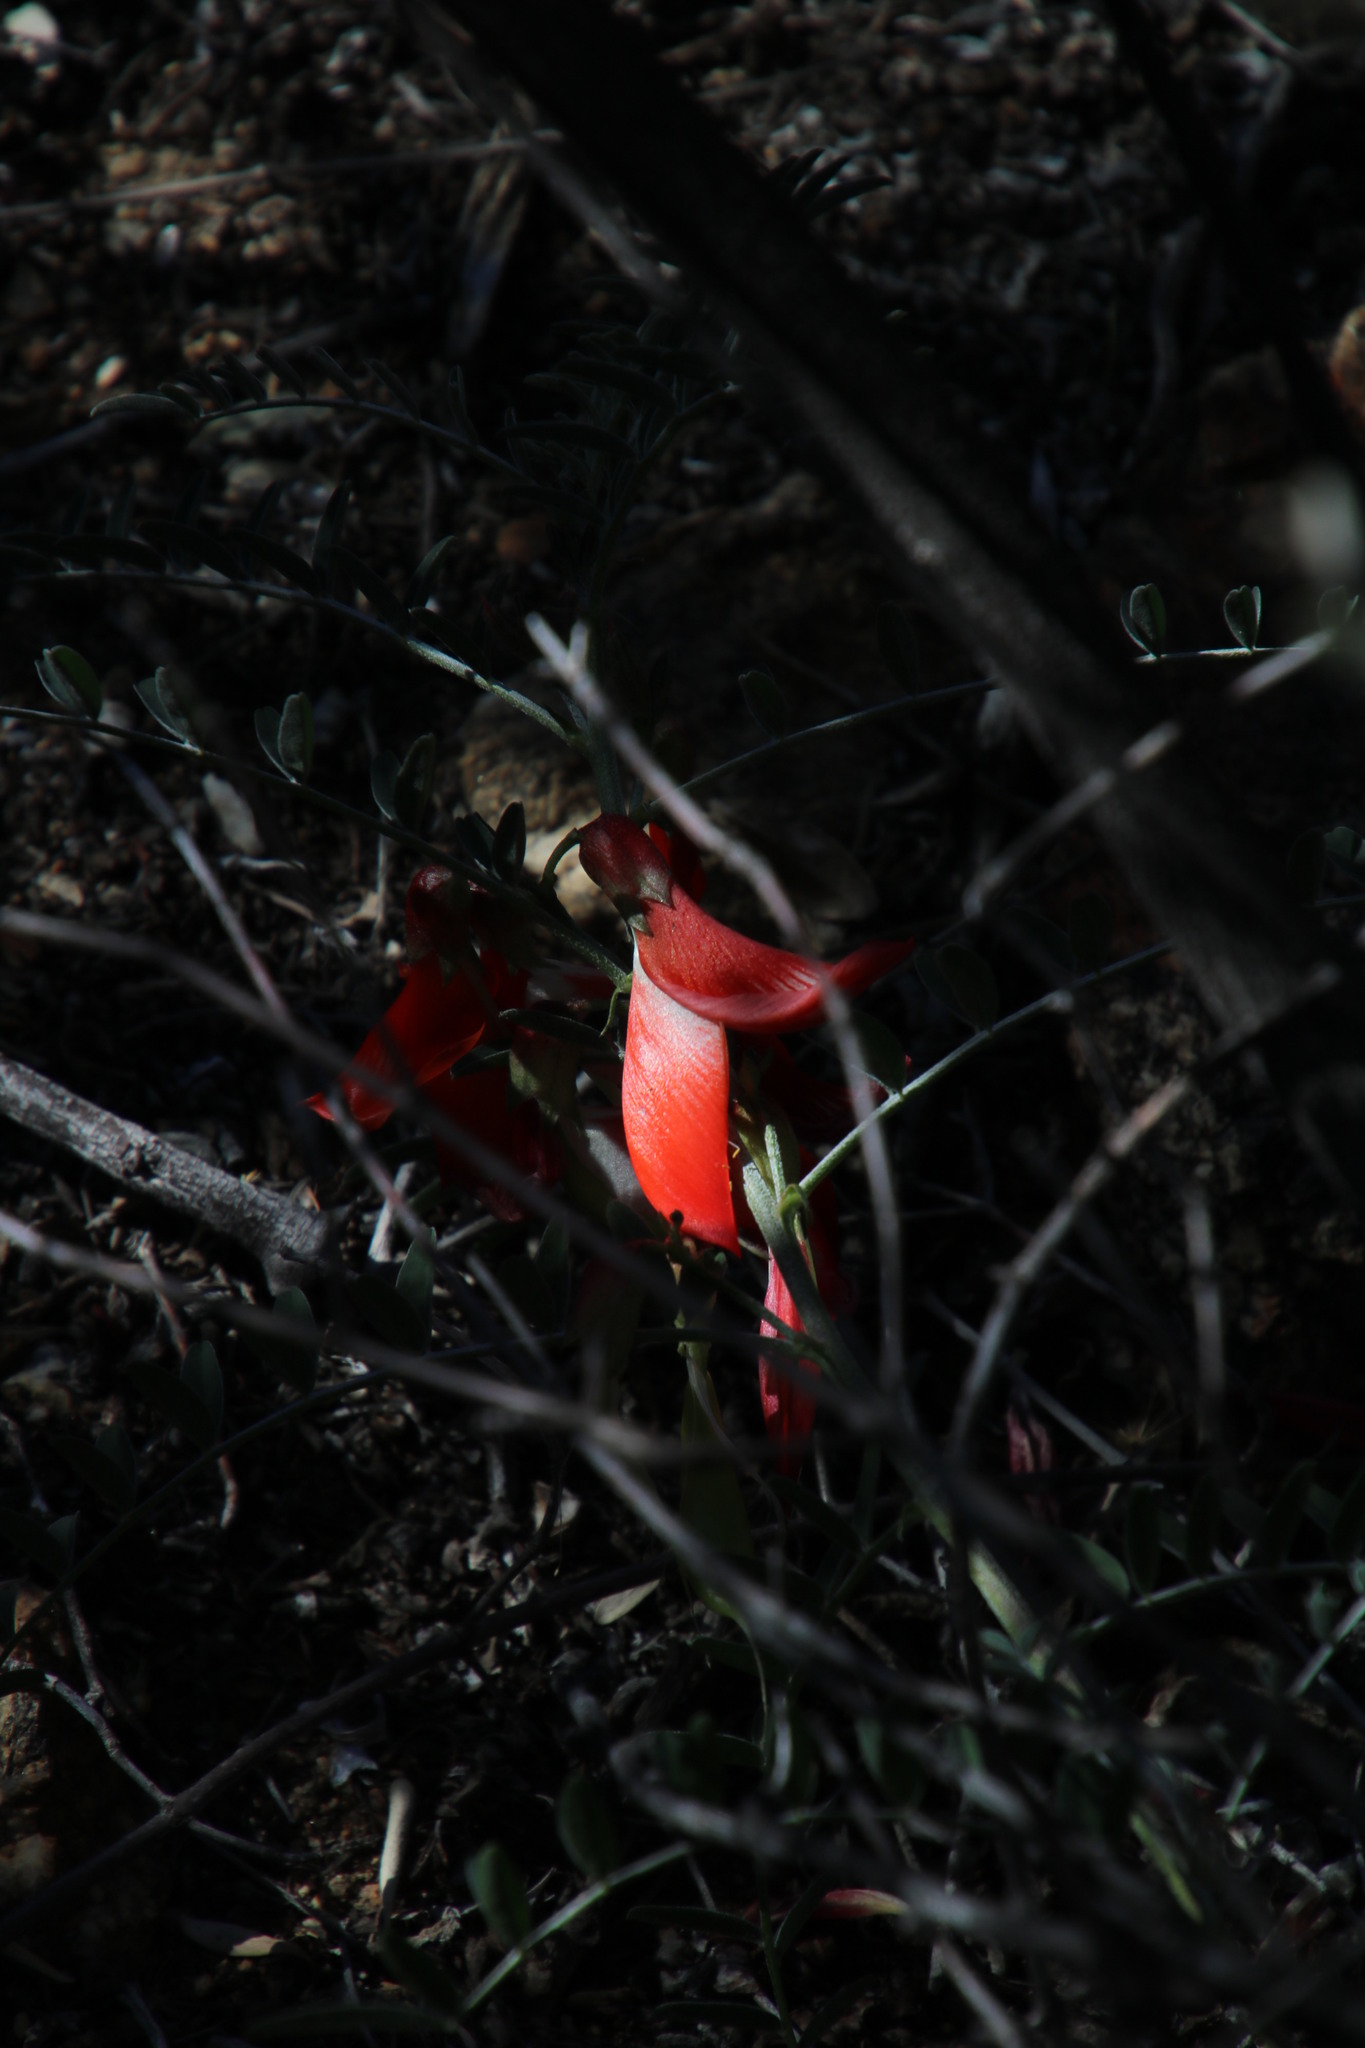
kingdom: Plantae
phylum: Tracheophyta
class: Magnoliopsida
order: Fabales
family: Fabaceae
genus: Lessertia
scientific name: Lessertia frutescens
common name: Balloon-pea
